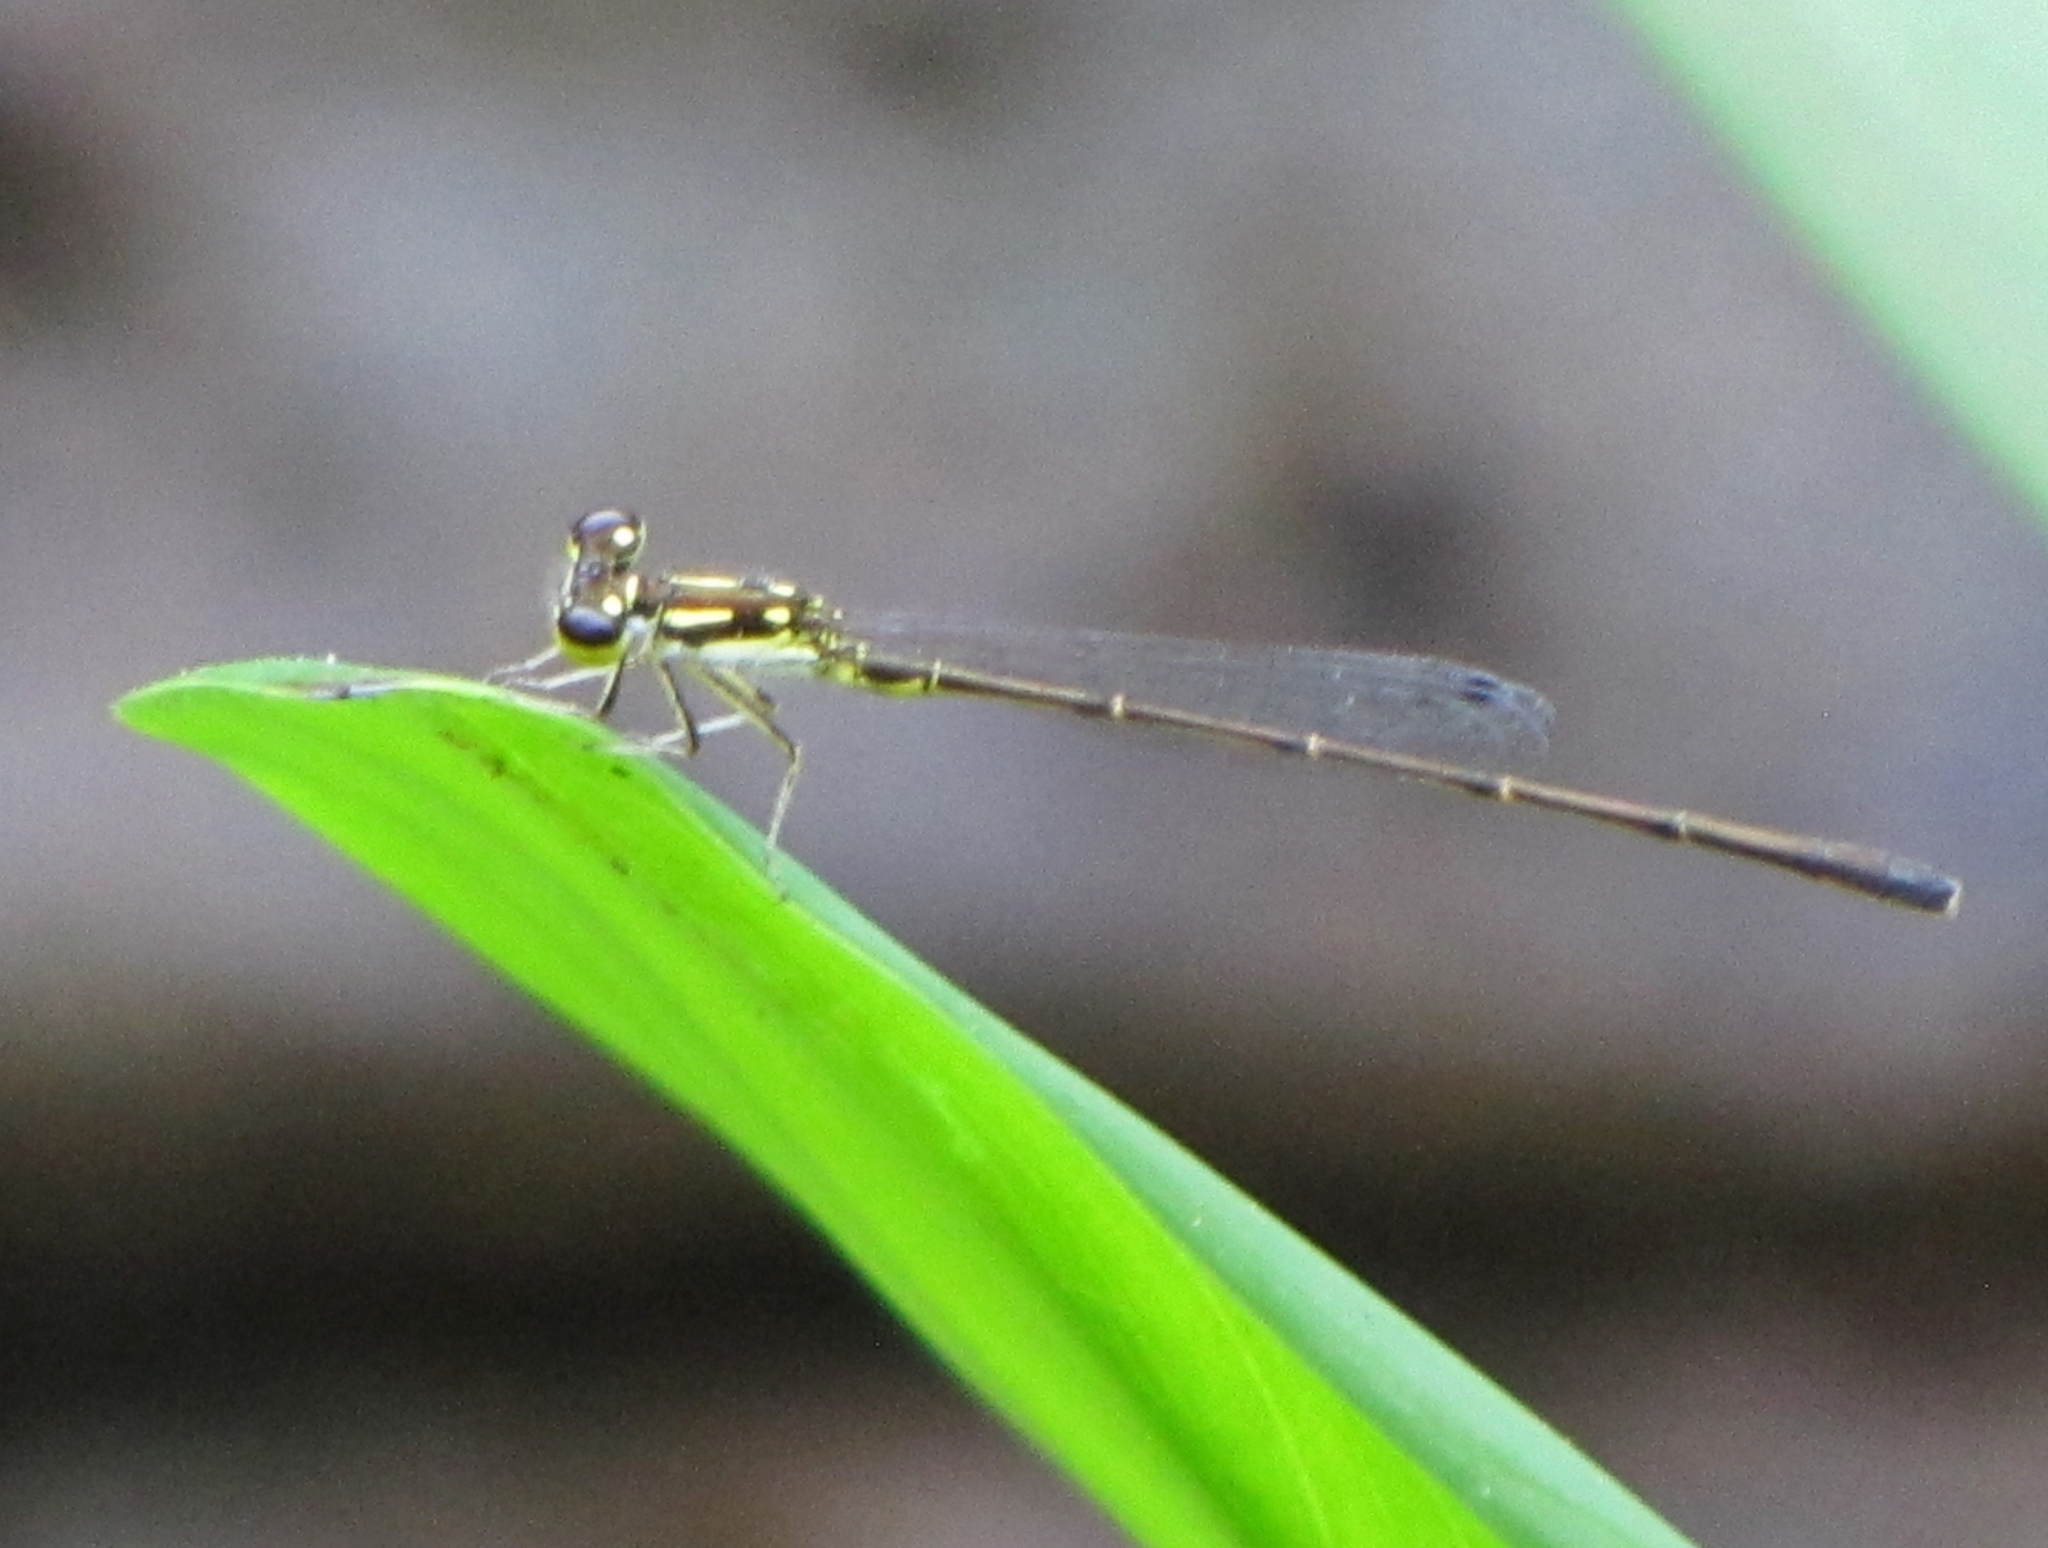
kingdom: Animalia
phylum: Arthropoda
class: Insecta
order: Odonata
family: Coenagrionidae
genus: Ischnura
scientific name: Ischnura posita
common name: Fragile forktail
